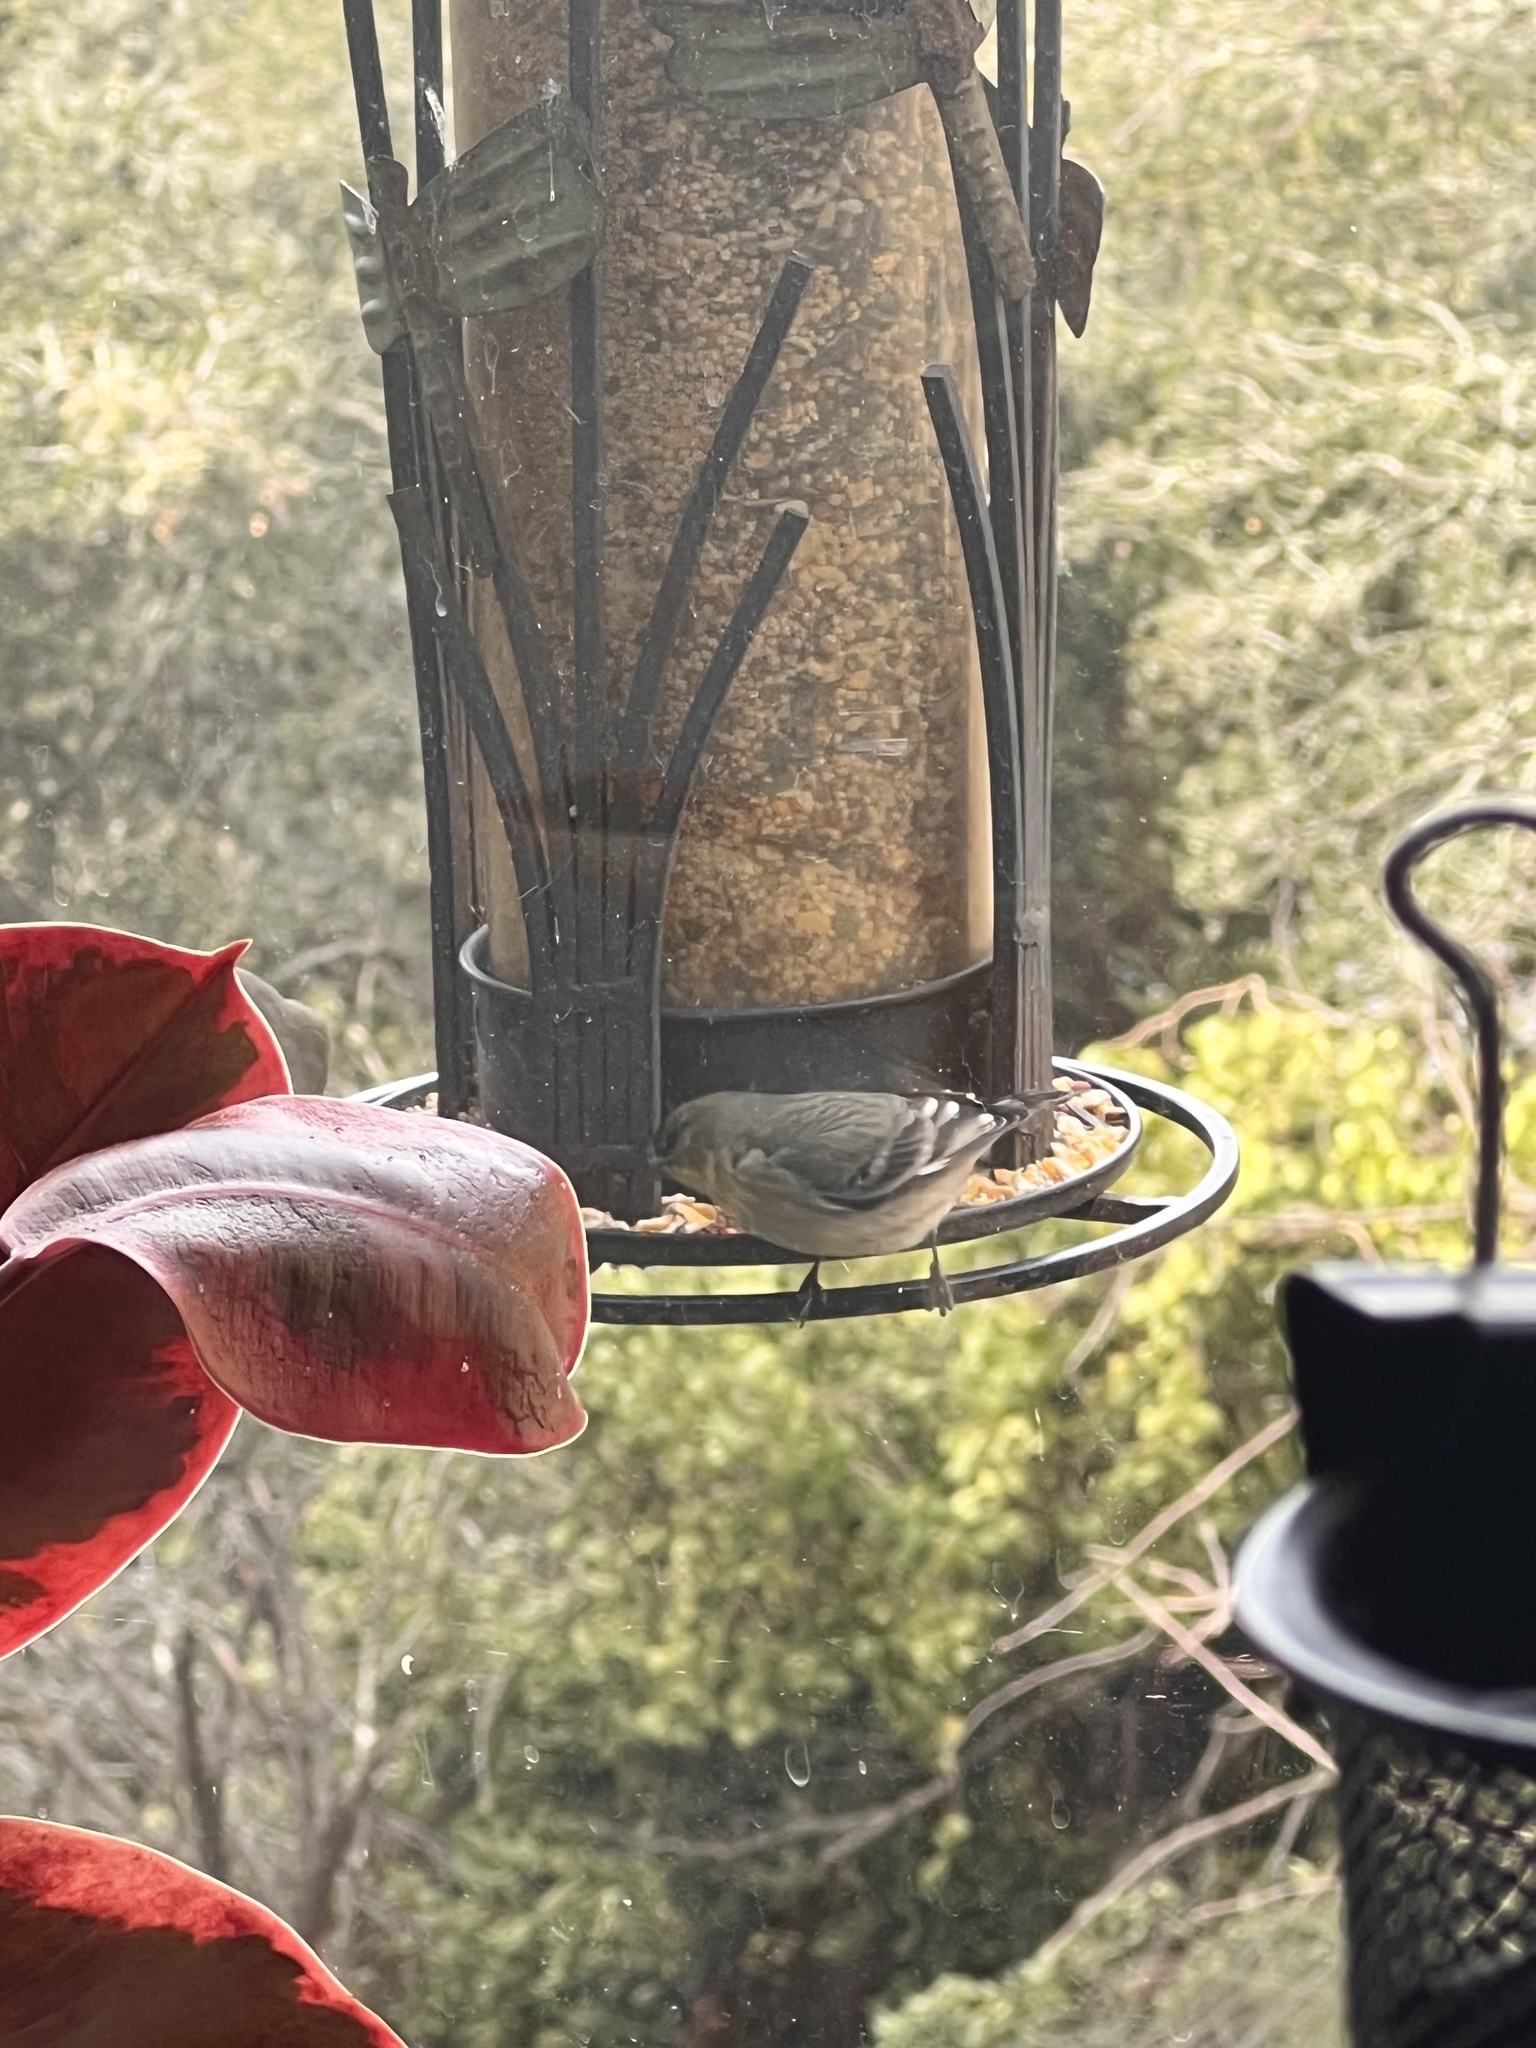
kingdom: Animalia
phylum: Chordata
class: Aves
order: Passeriformes
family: Fringillidae
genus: Spinus
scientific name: Spinus psaltria
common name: Lesser goldfinch
